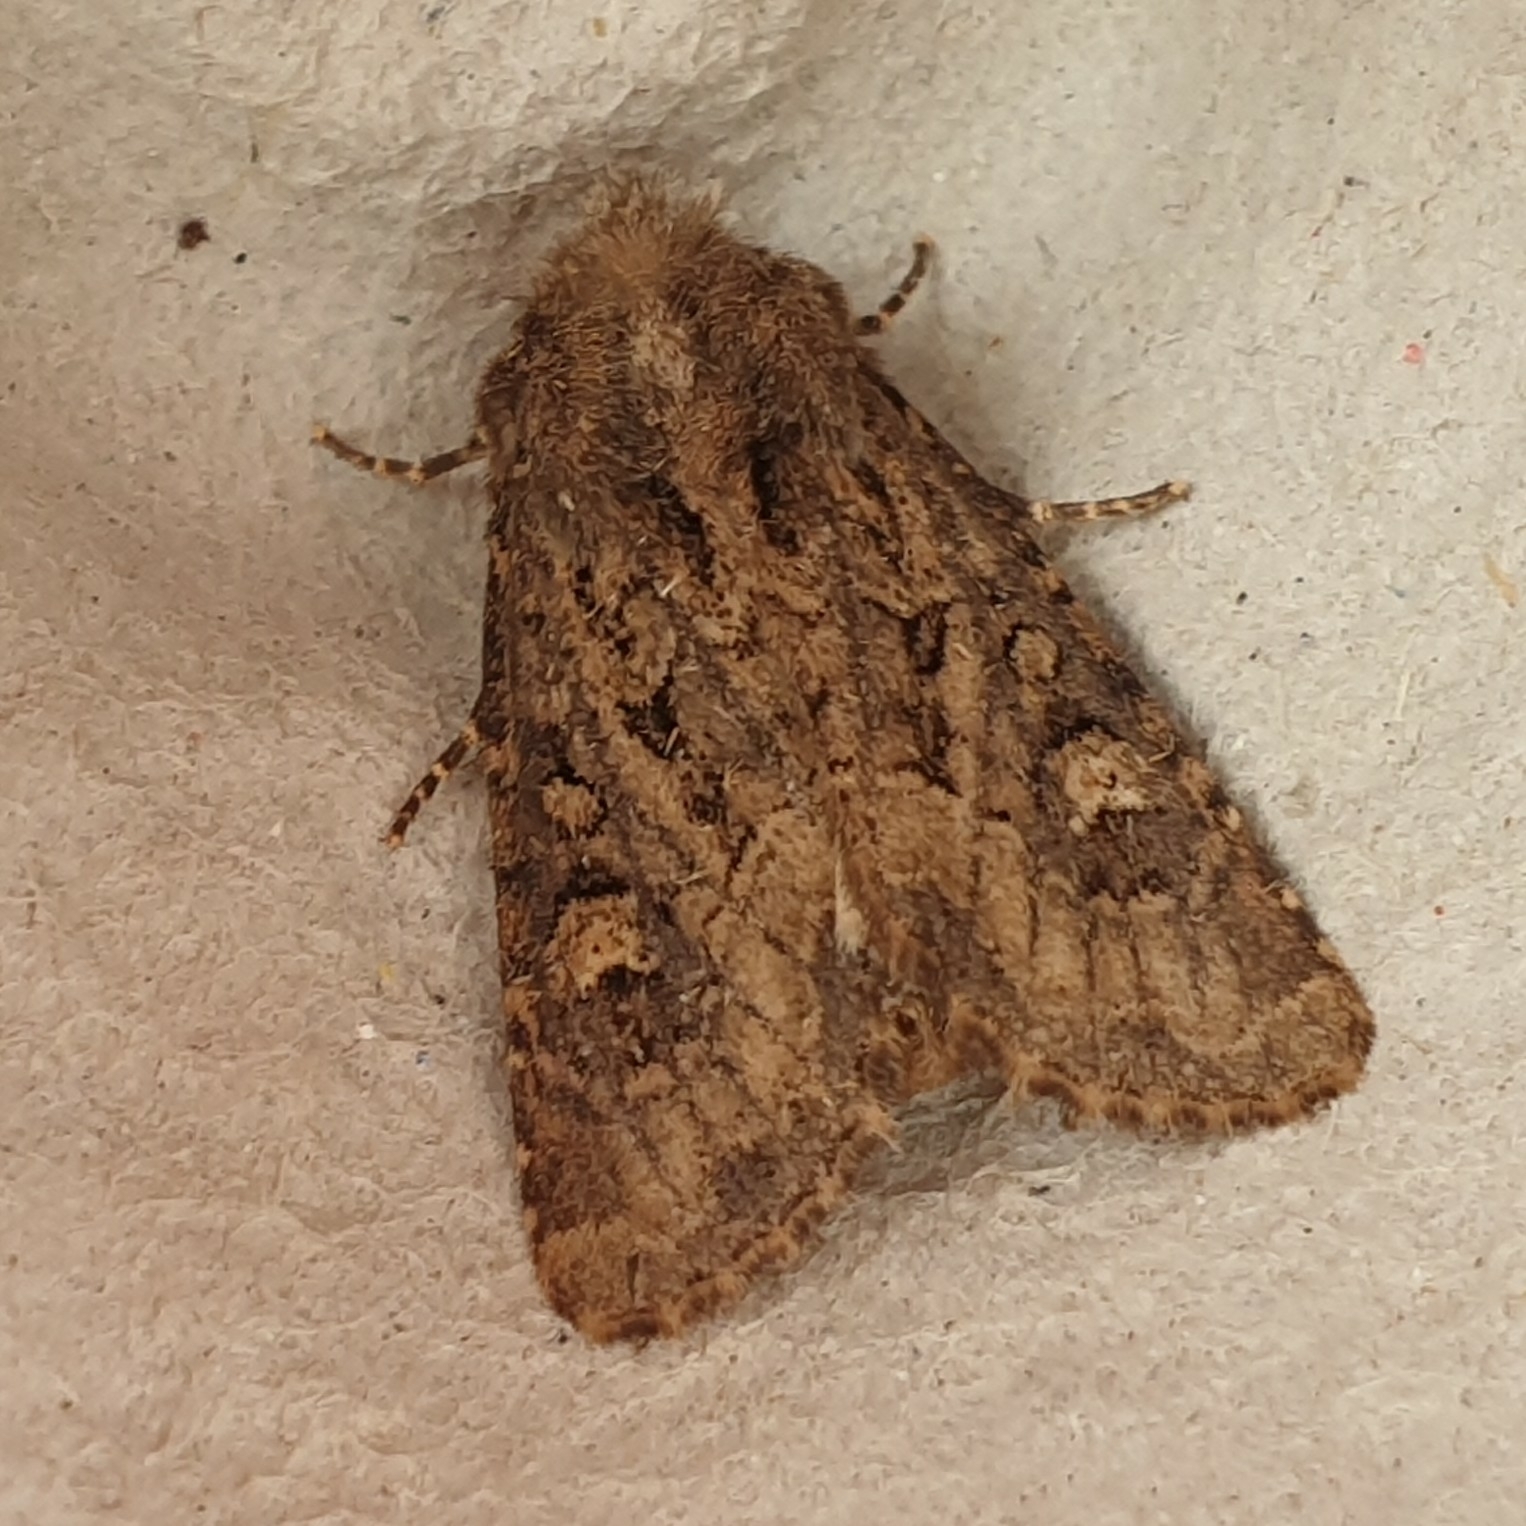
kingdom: Animalia
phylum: Arthropoda
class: Insecta
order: Lepidoptera
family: Noctuidae
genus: Luperina
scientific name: Luperina testacea
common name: Flounced rustic
